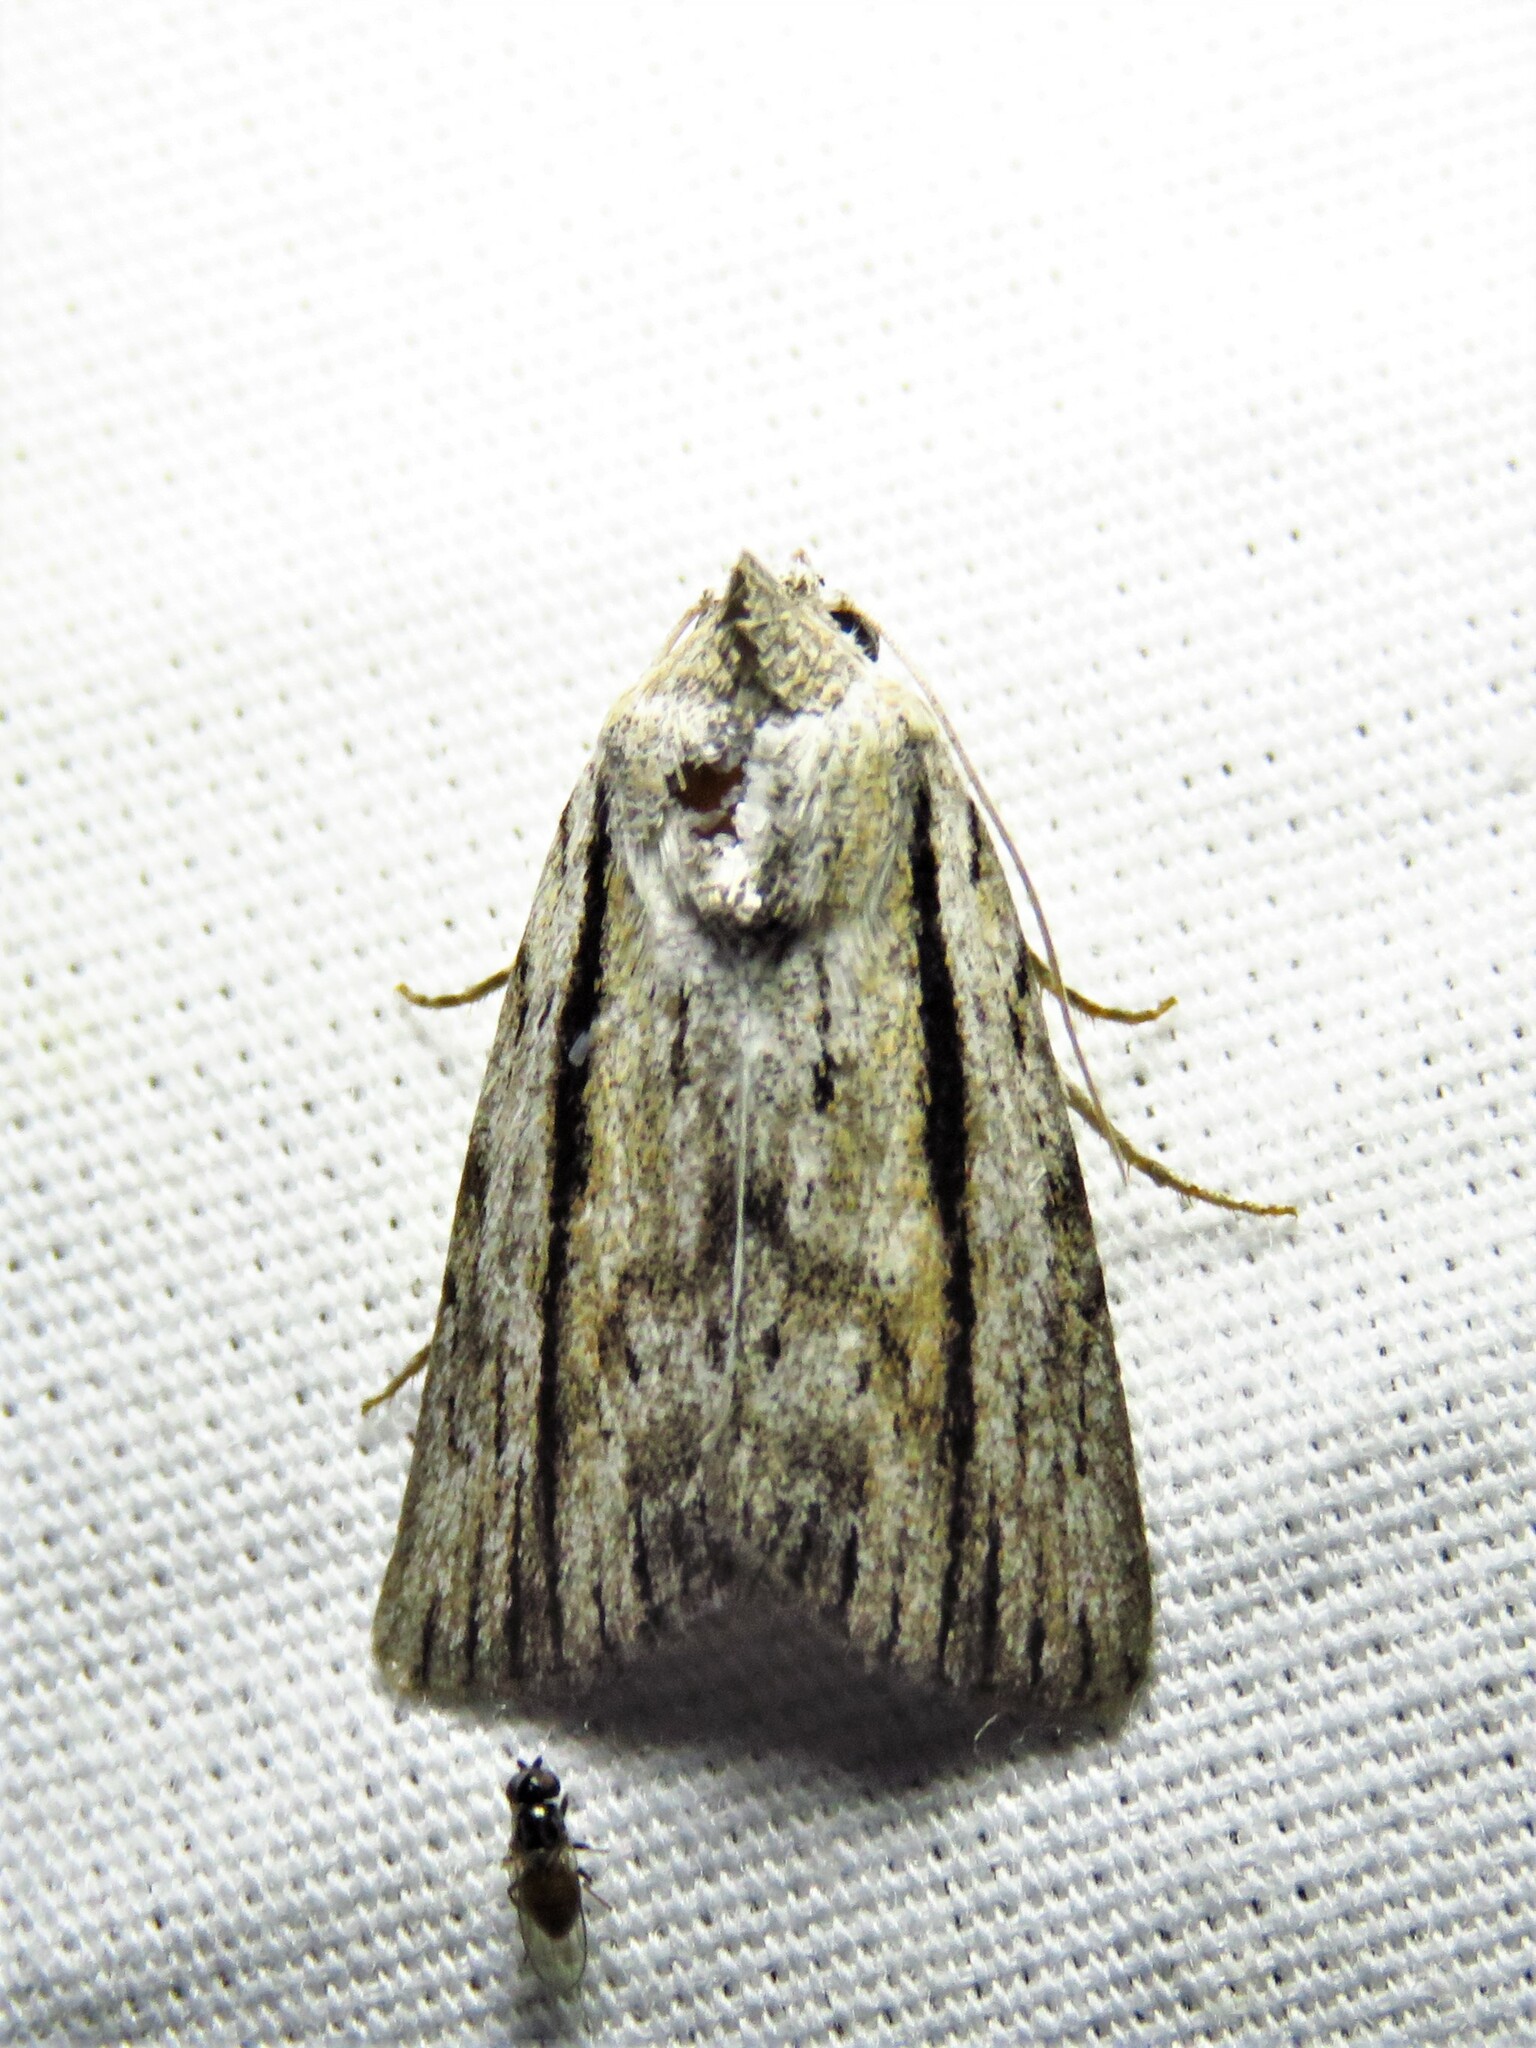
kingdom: Animalia
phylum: Arthropoda
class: Insecta
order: Lepidoptera
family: Noctuidae
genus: Catabenoides
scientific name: Catabenoides terminellus
